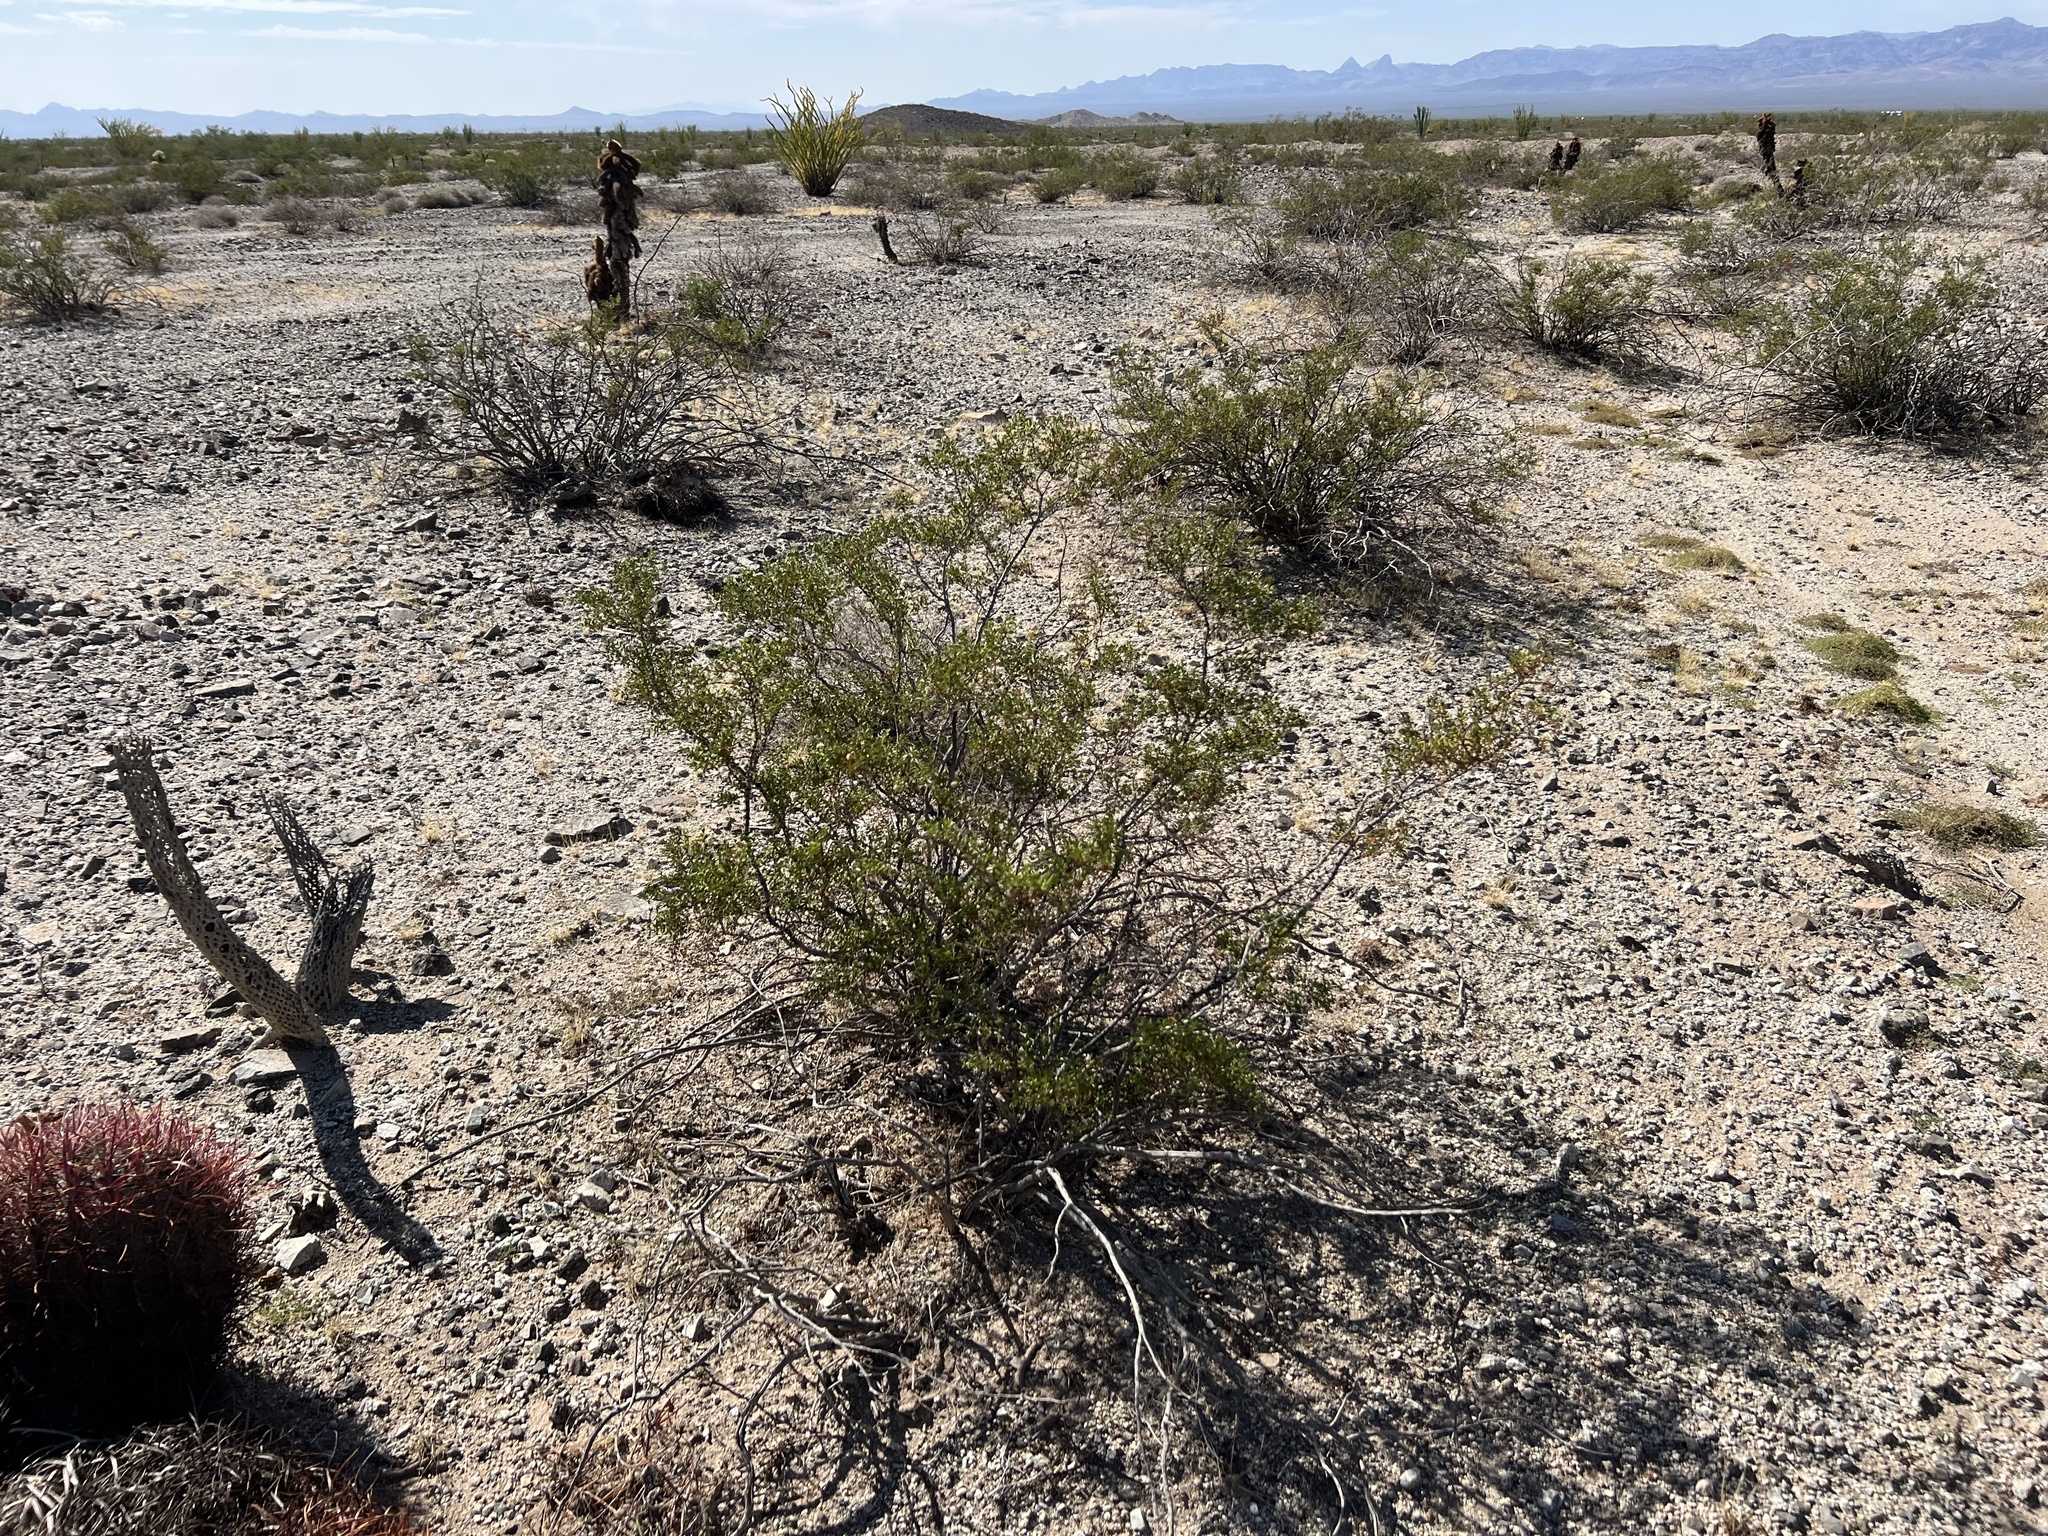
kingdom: Plantae
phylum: Tracheophyta
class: Magnoliopsida
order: Zygophyllales
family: Zygophyllaceae
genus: Larrea
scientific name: Larrea tridentata
